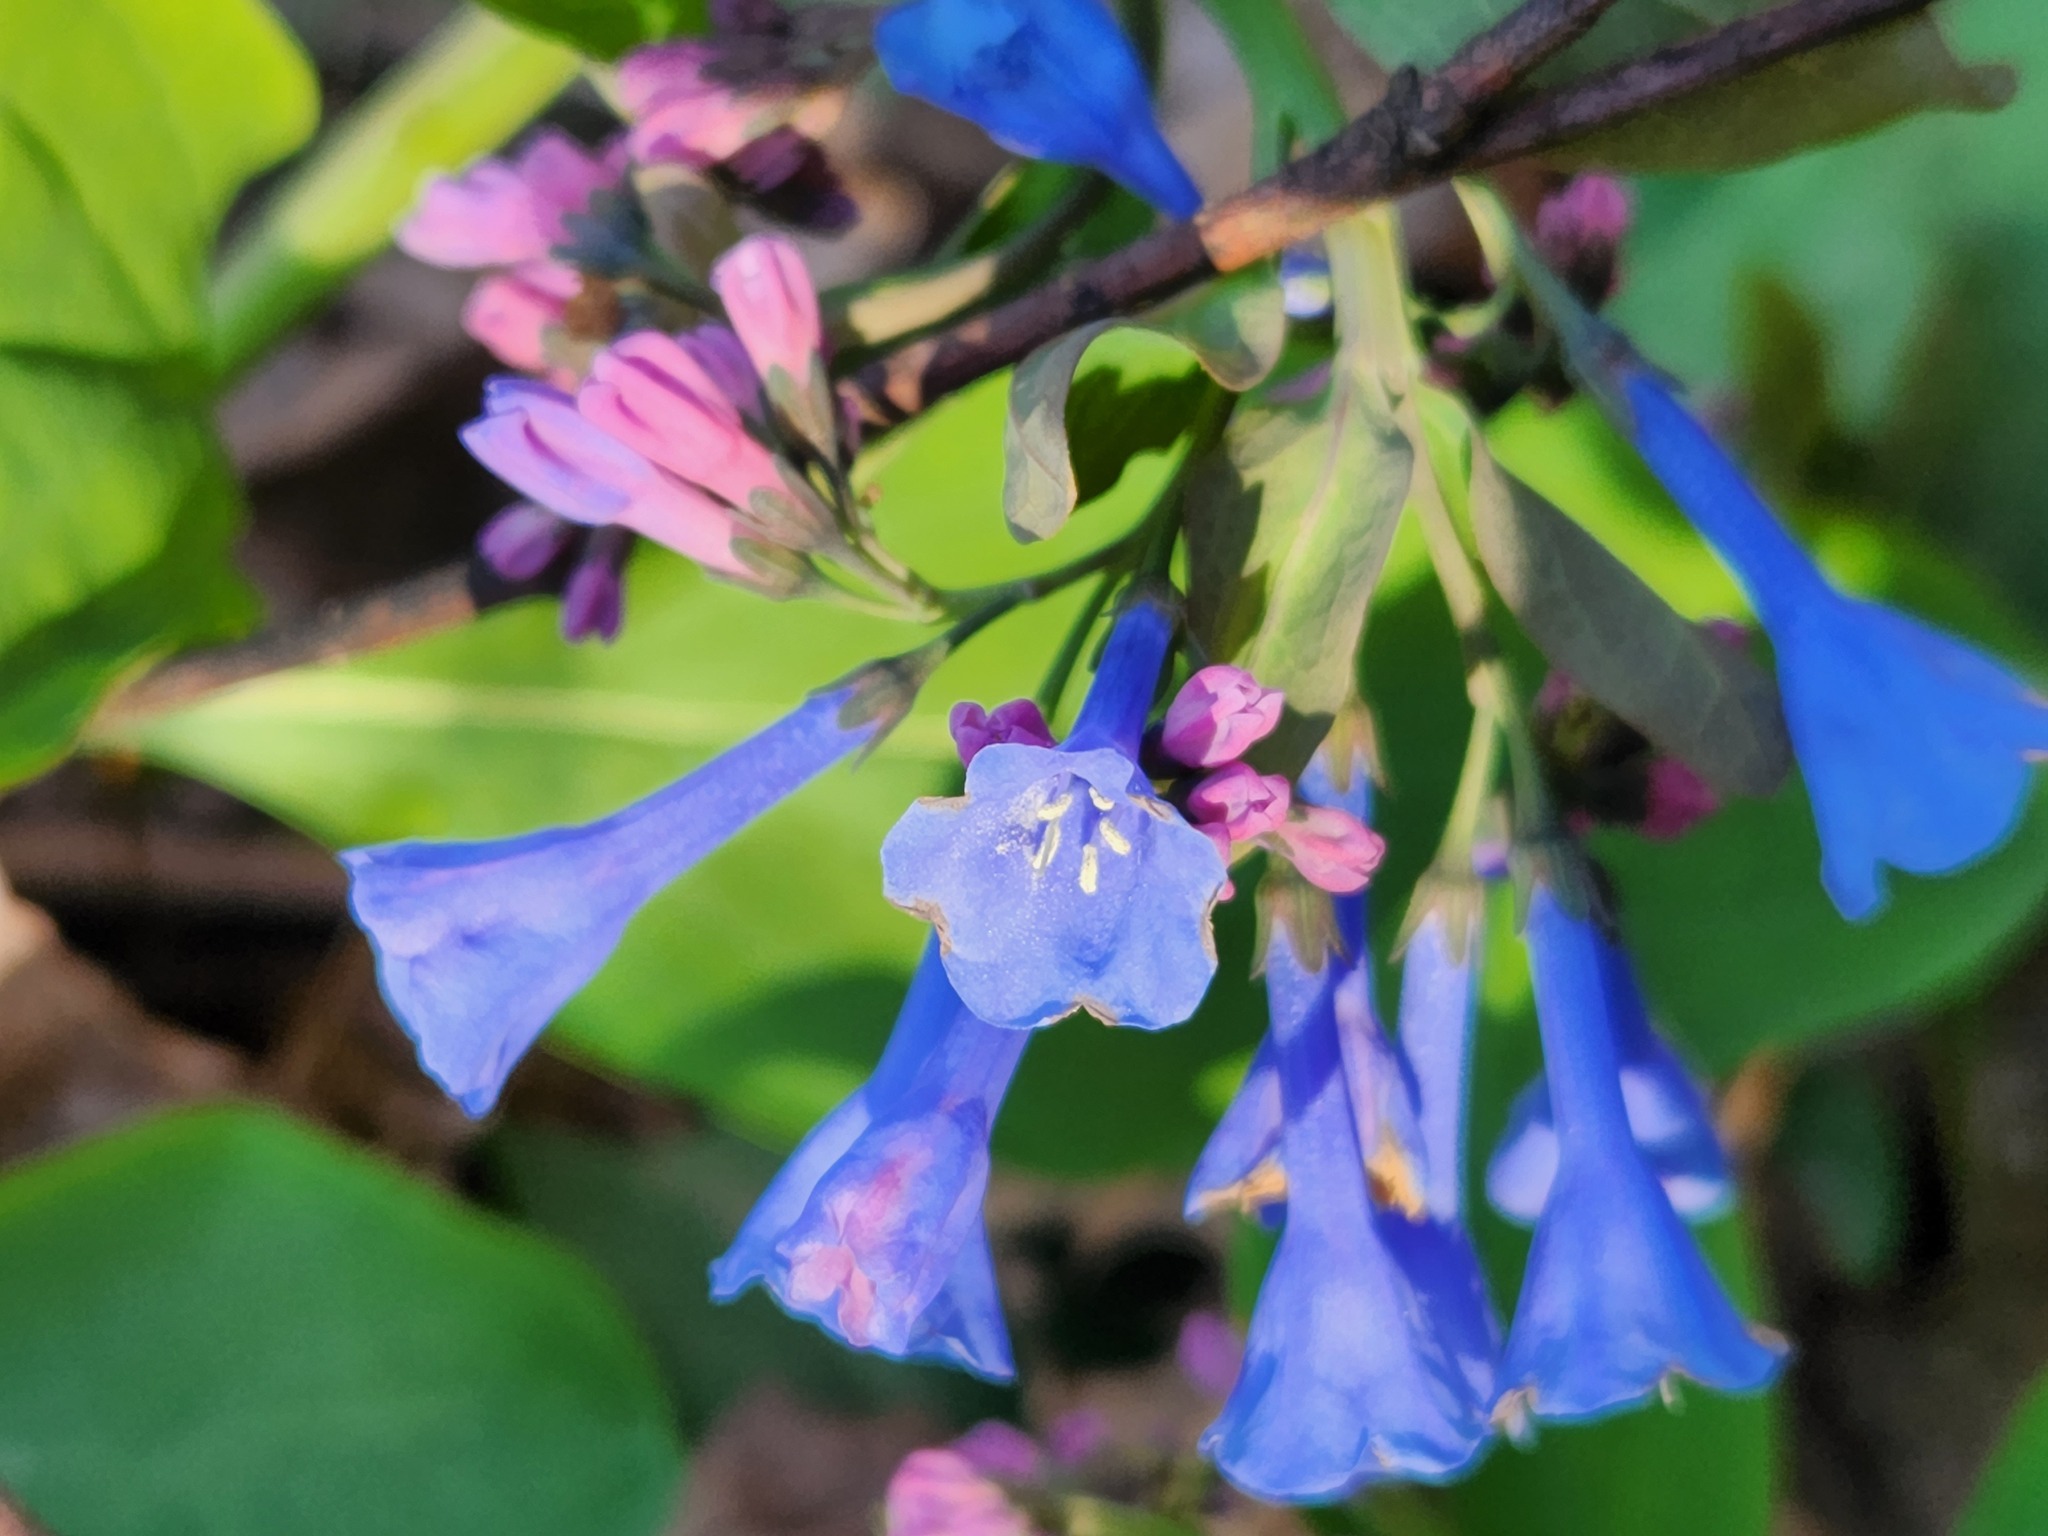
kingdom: Plantae
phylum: Tracheophyta
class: Magnoliopsida
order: Boraginales
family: Boraginaceae
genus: Mertensia
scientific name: Mertensia virginica
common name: Virginia bluebells
